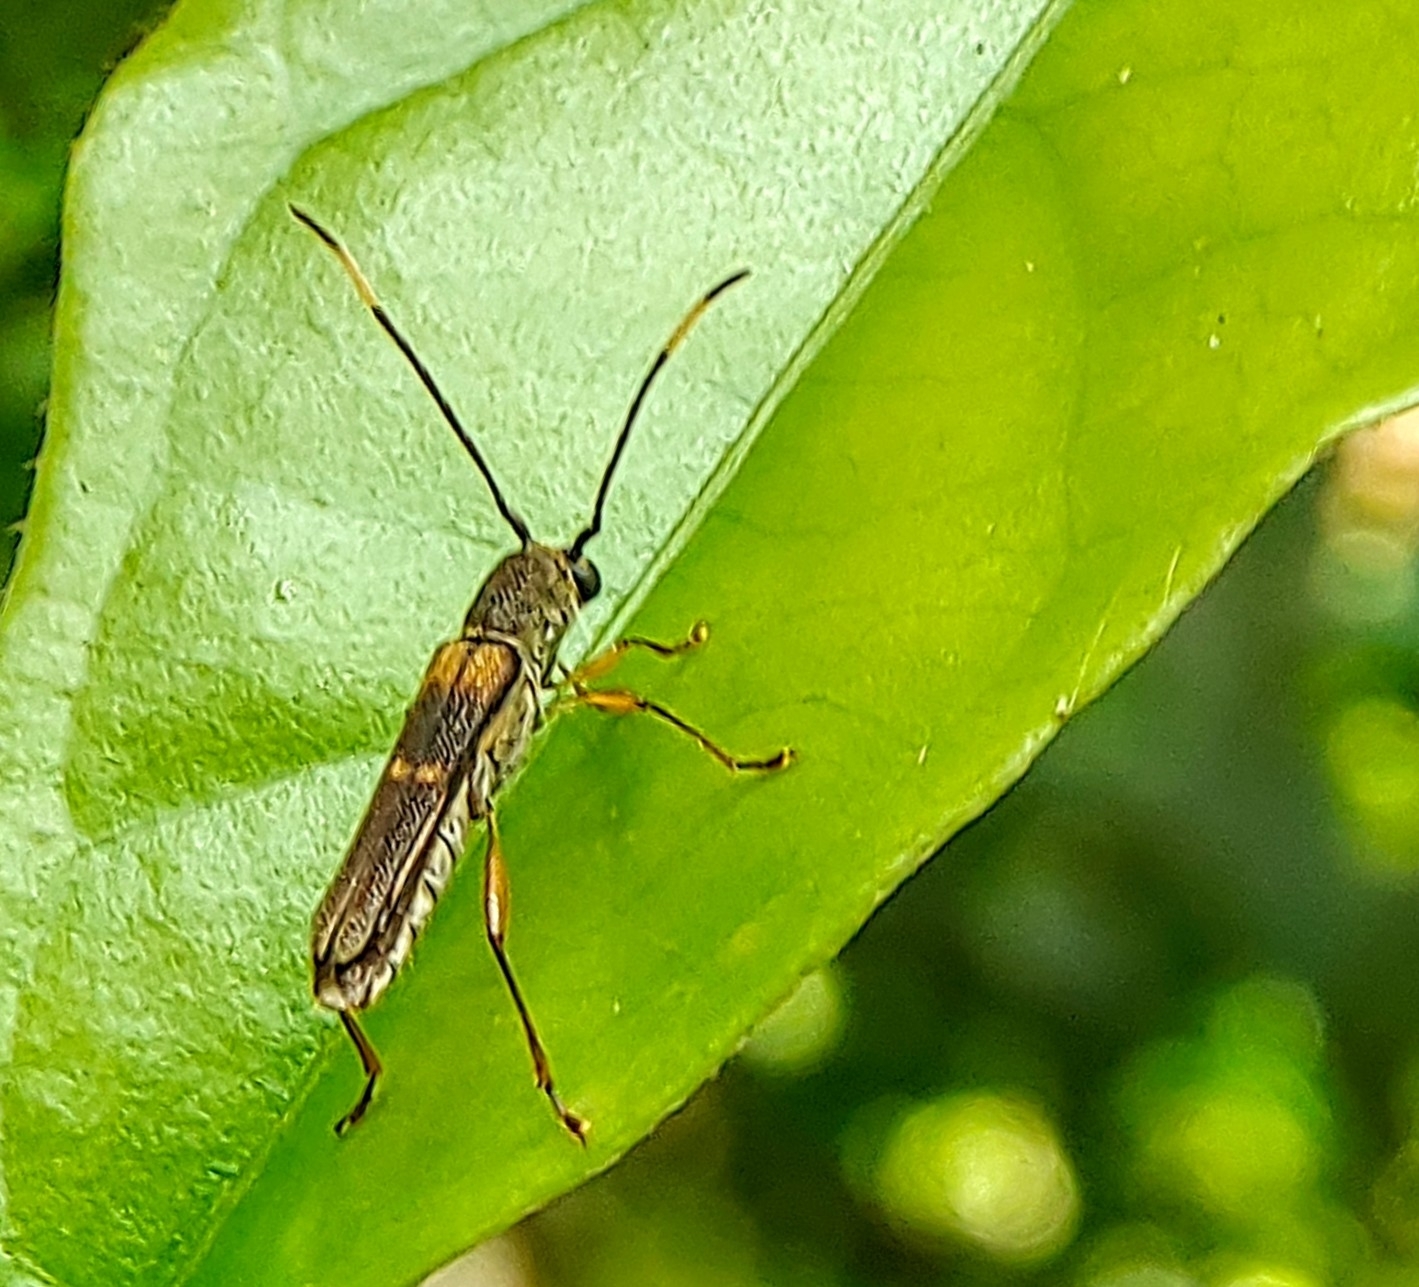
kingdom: Animalia
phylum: Arthropoda
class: Insecta
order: Coleoptera
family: Cerambycidae
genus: Thranius
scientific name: Thranius bimaculatus
